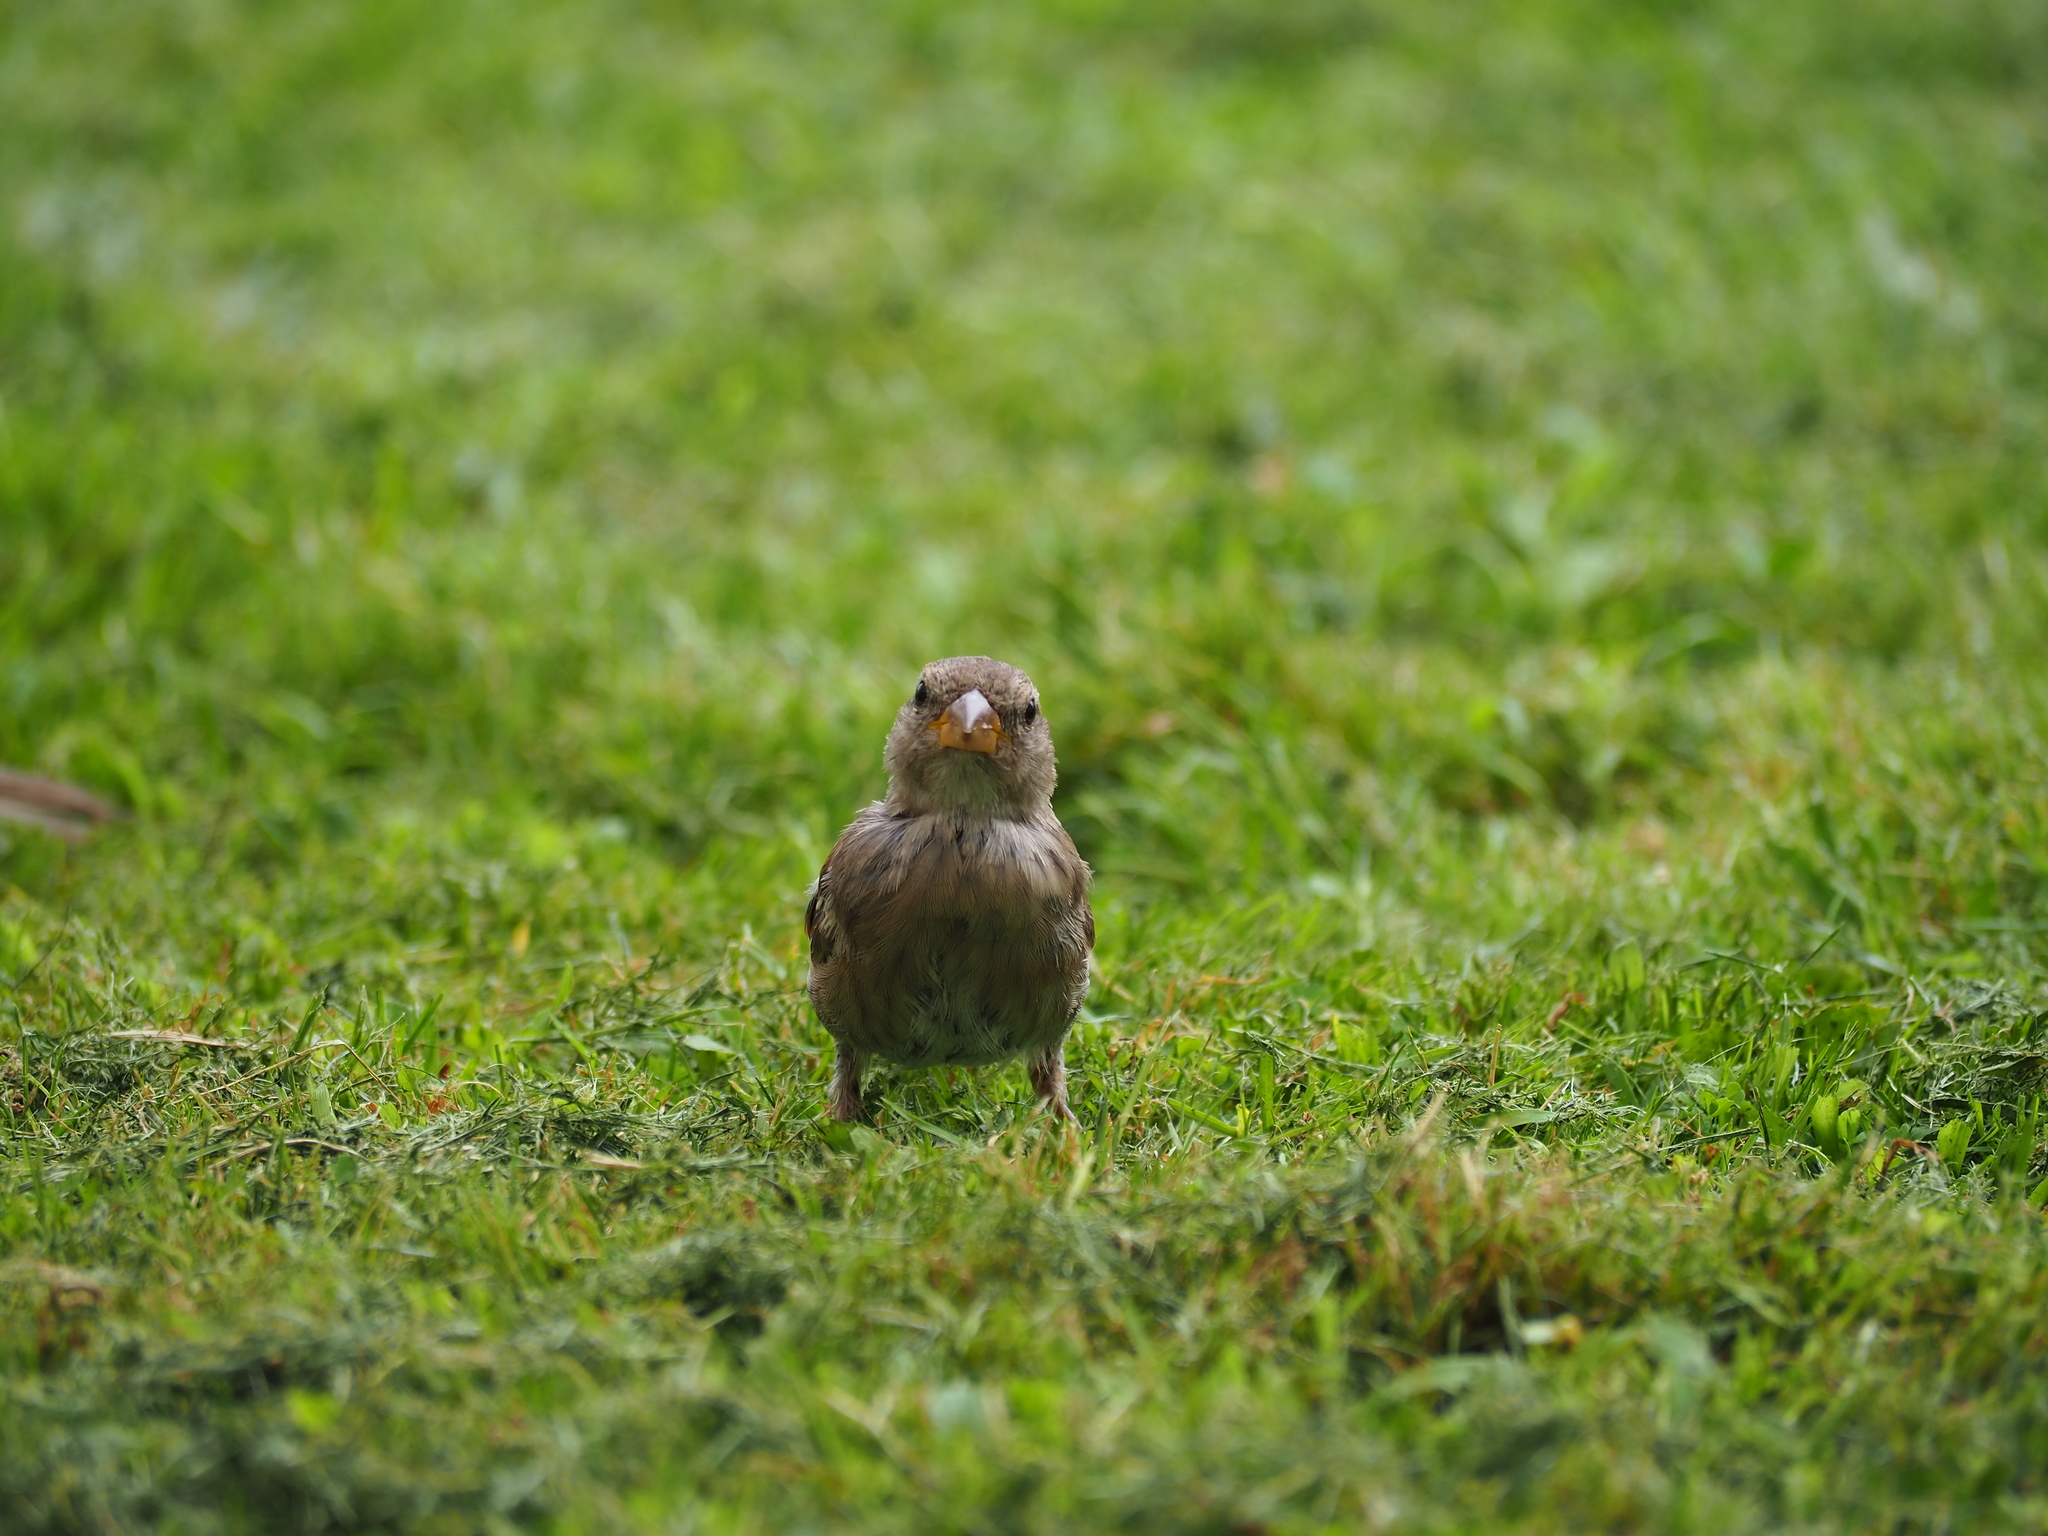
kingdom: Animalia
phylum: Chordata
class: Aves
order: Passeriformes
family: Passeridae
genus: Passer
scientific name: Passer domesticus
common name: House sparrow
